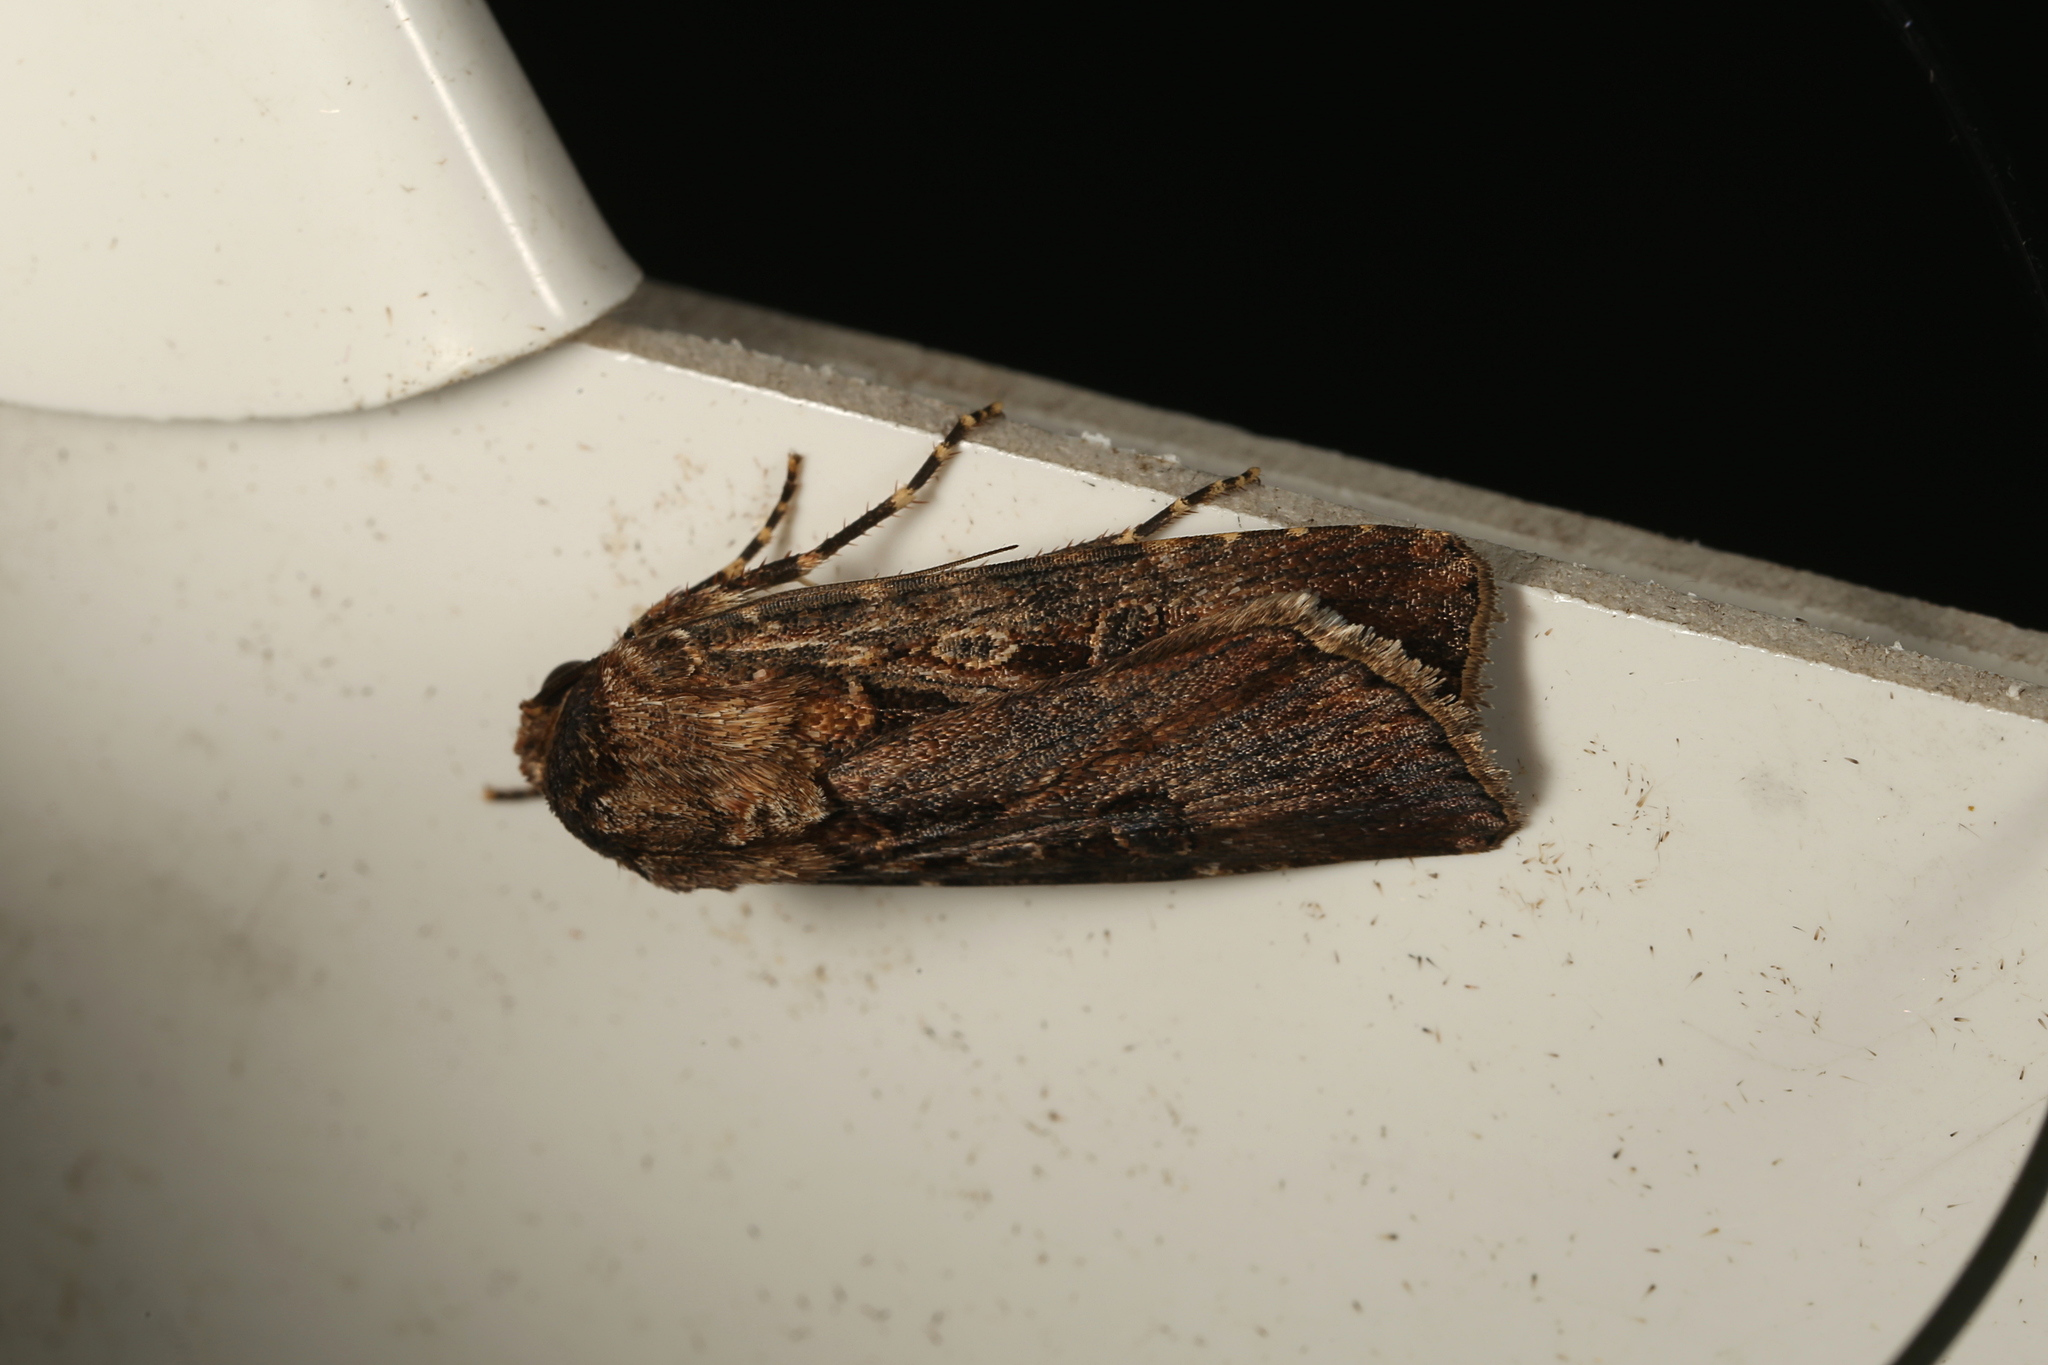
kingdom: Animalia
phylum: Arthropoda
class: Insecta
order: Lepidoptera
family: Noctuidae
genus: Agrotis
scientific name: Agrotis infusa
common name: Bogong moth
